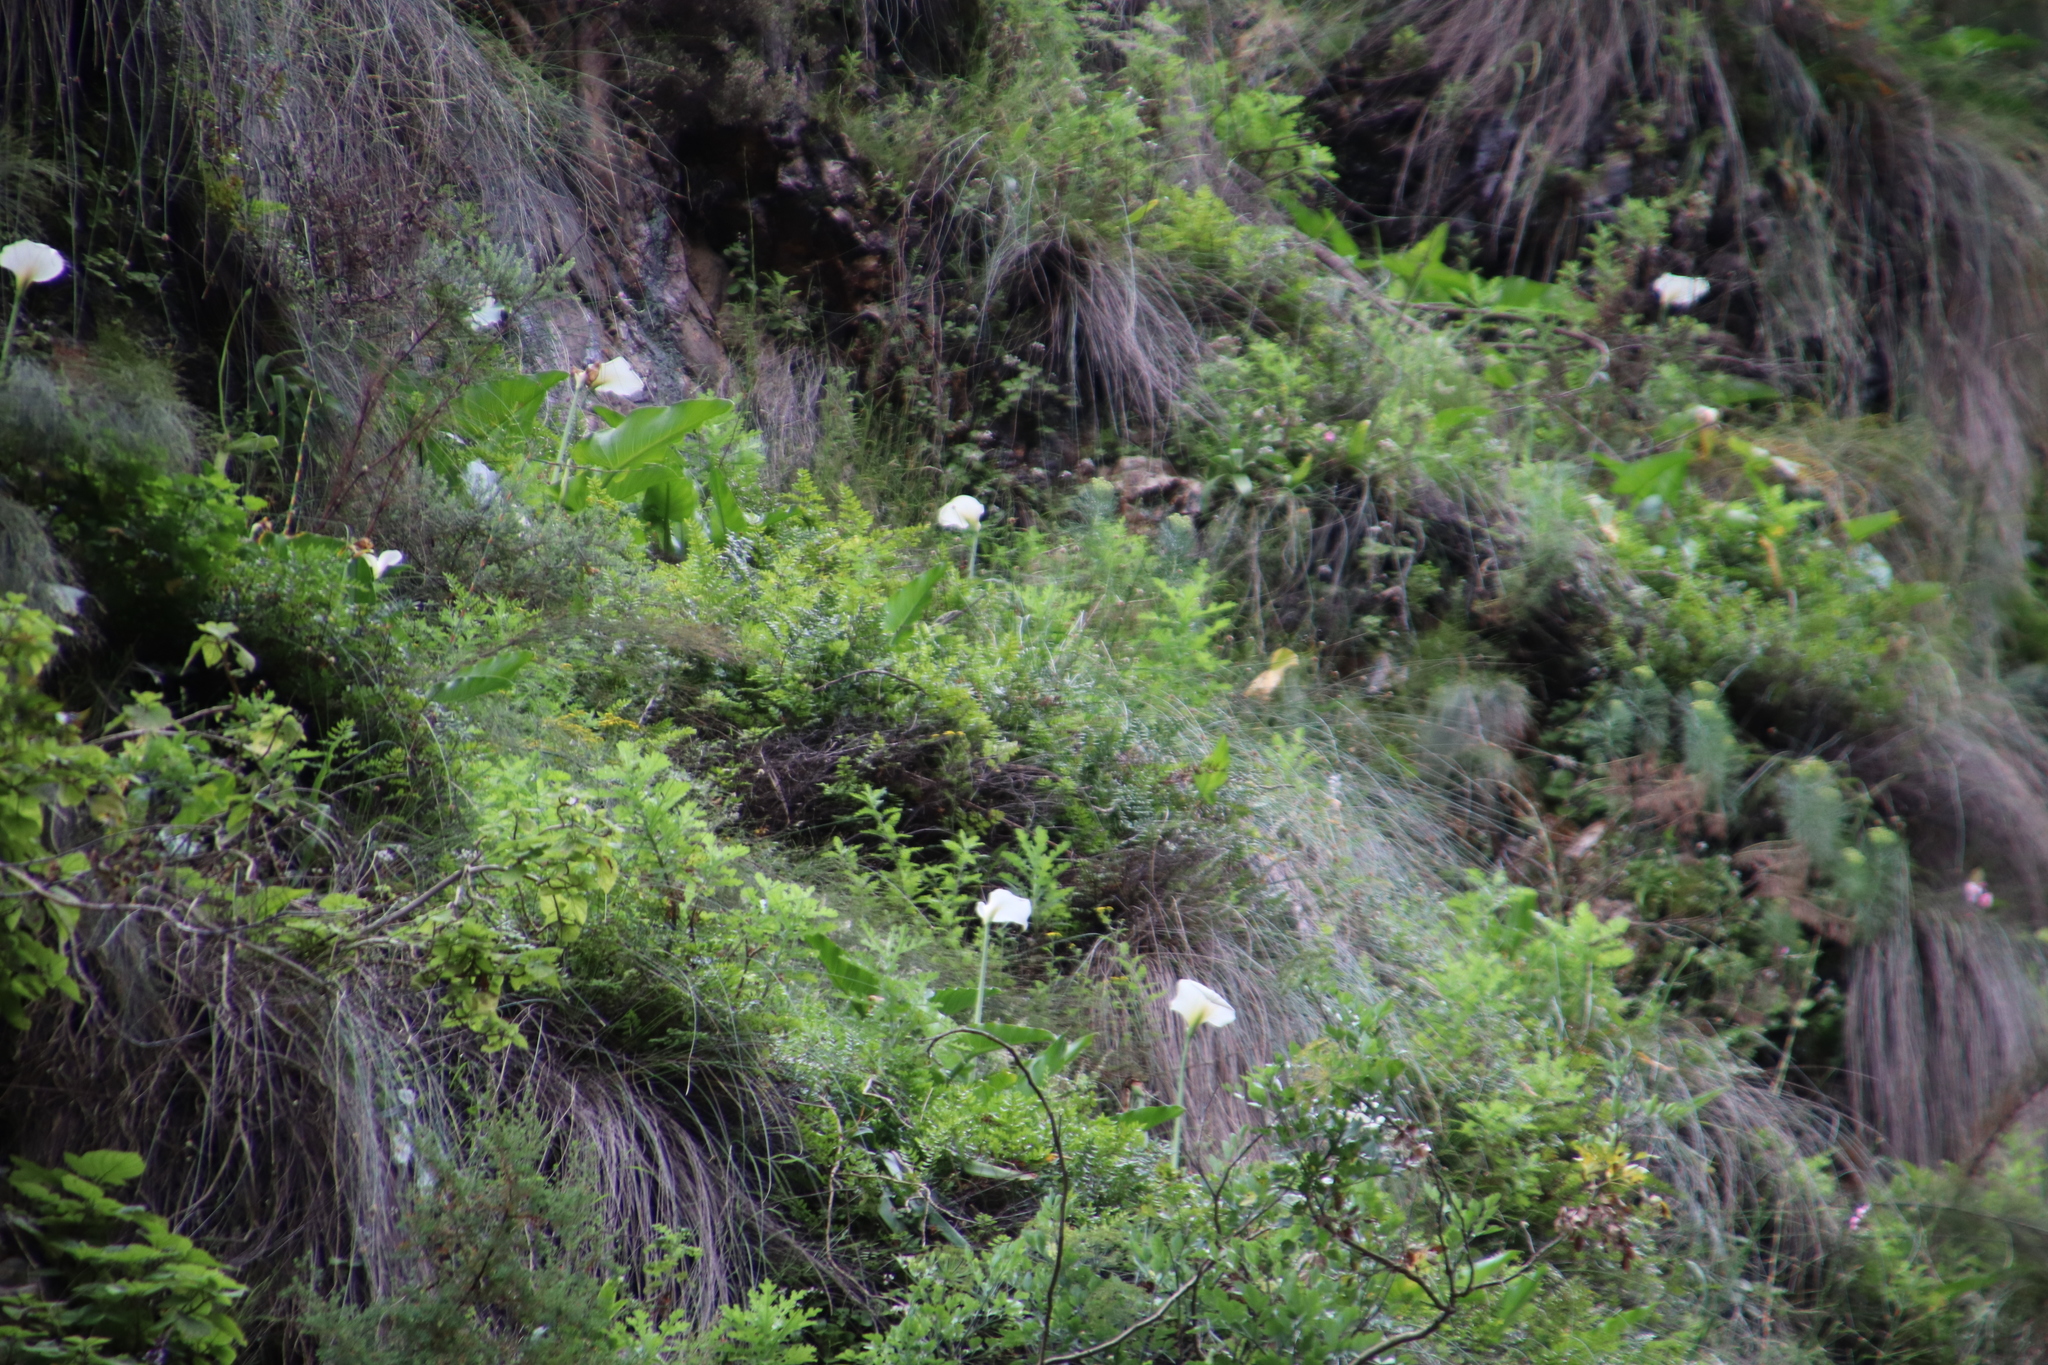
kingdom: Plantae
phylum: Tracheophyta
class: Liliopsida
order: Alismatales
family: Araceae
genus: Zantedeschia
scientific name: Zantedeschia aethiopica
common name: Altar-lily
